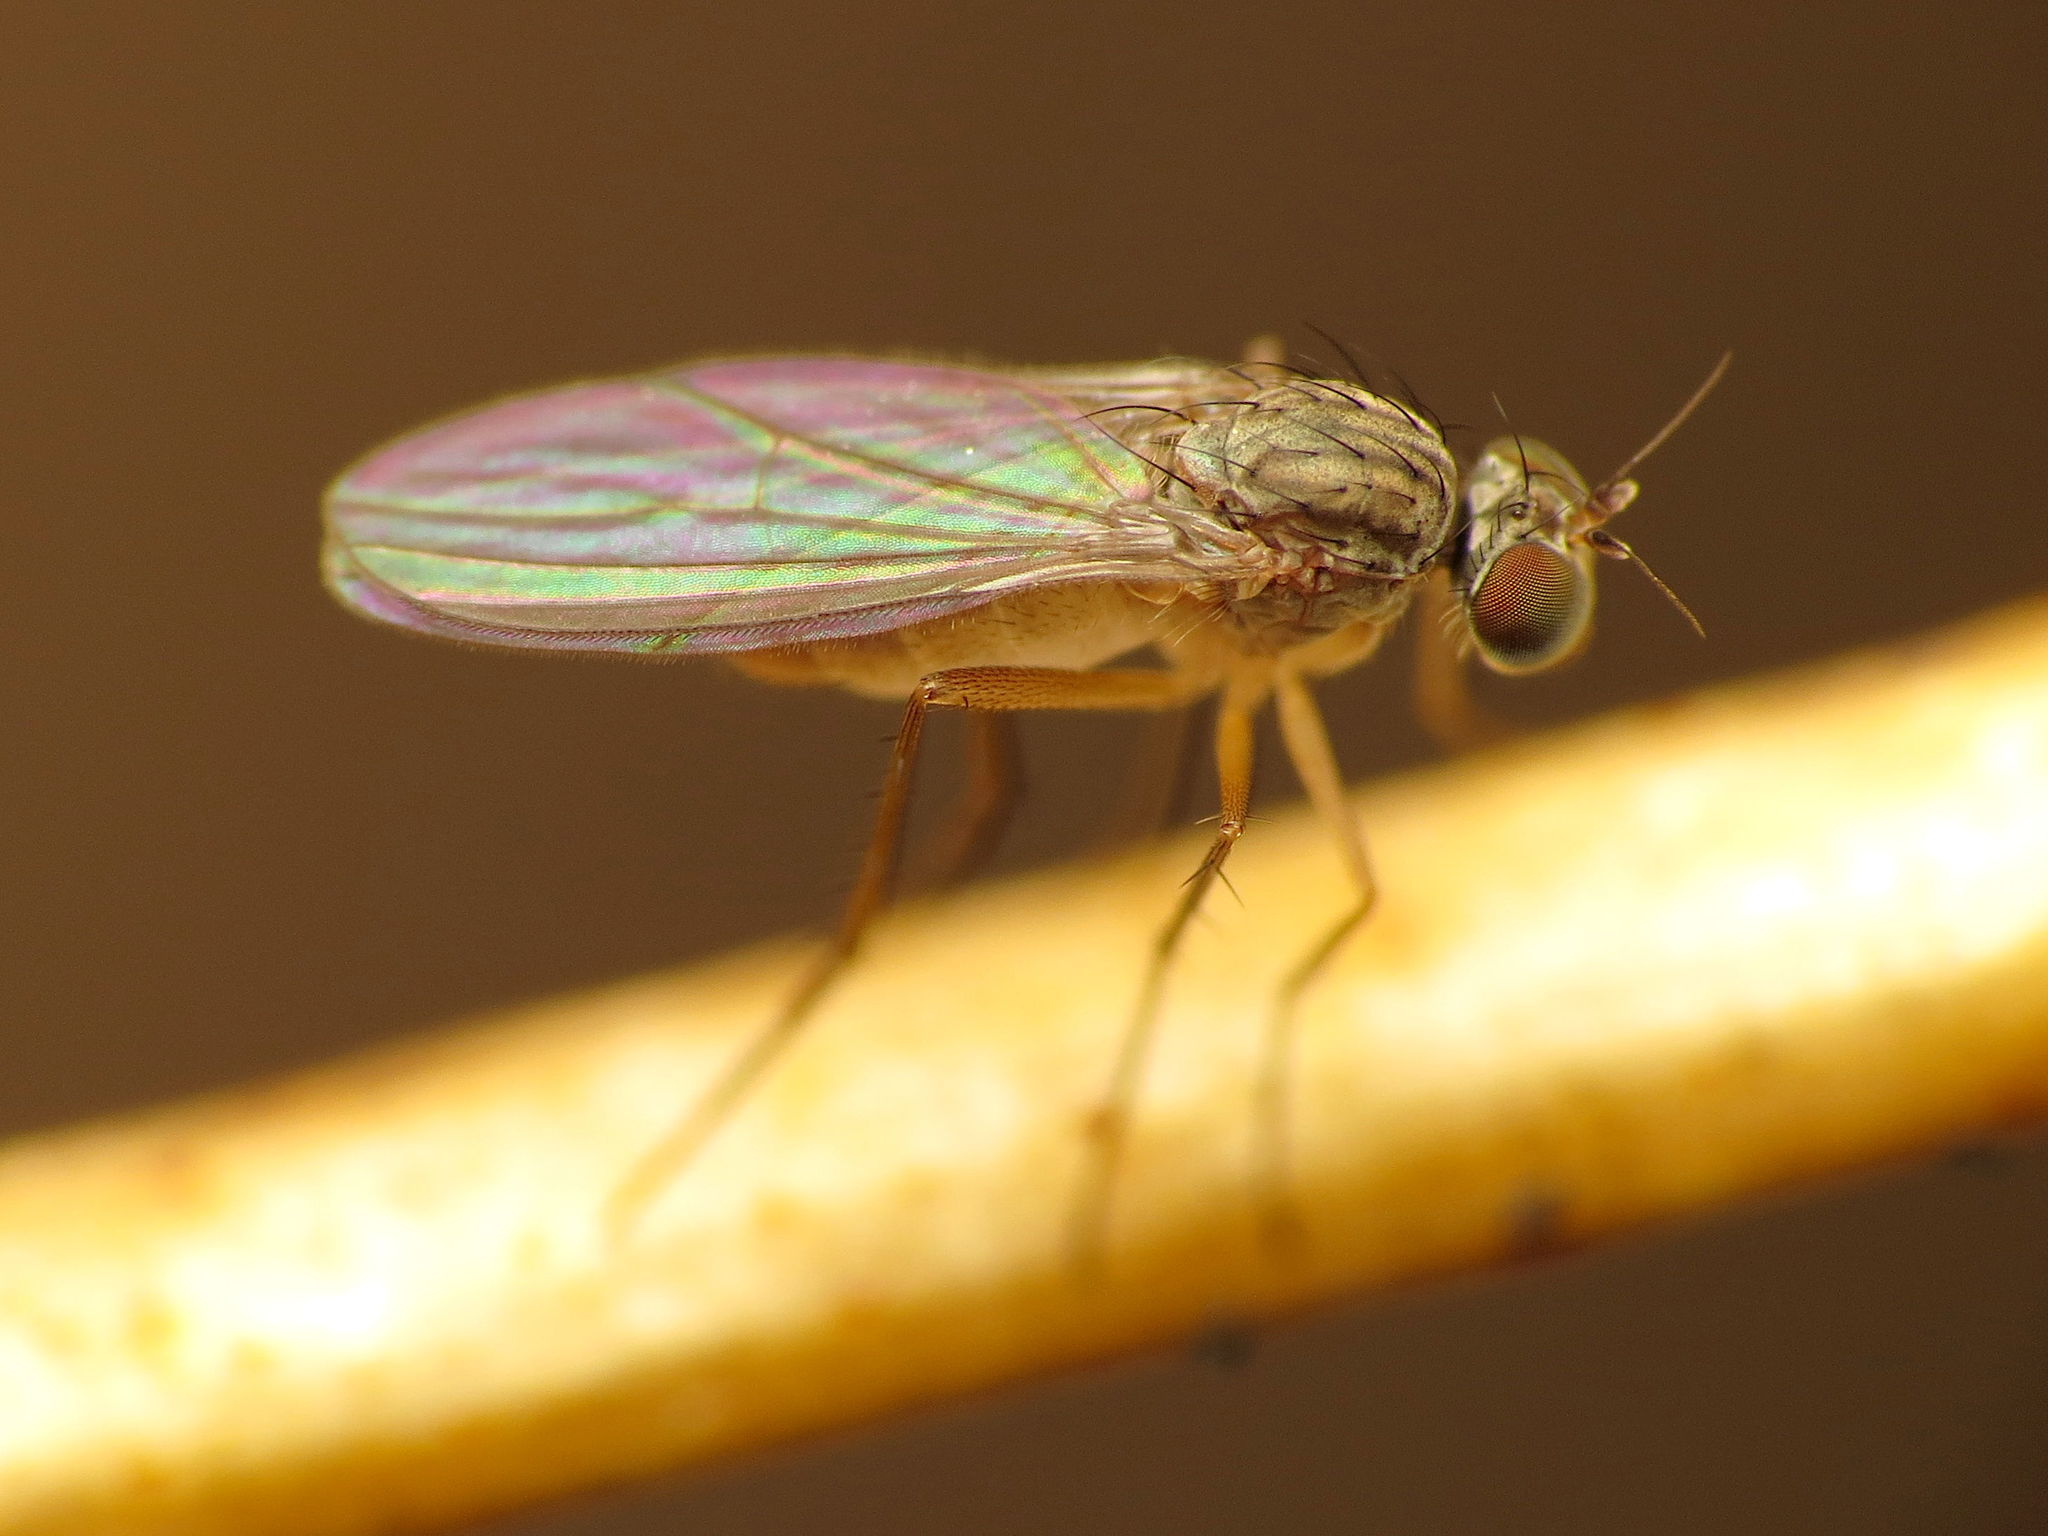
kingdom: Animalia
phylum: Arthropoda
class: Insecta
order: Diptera
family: Dolichopodidae
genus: Sympycnus
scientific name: Sympycnus lineatus
